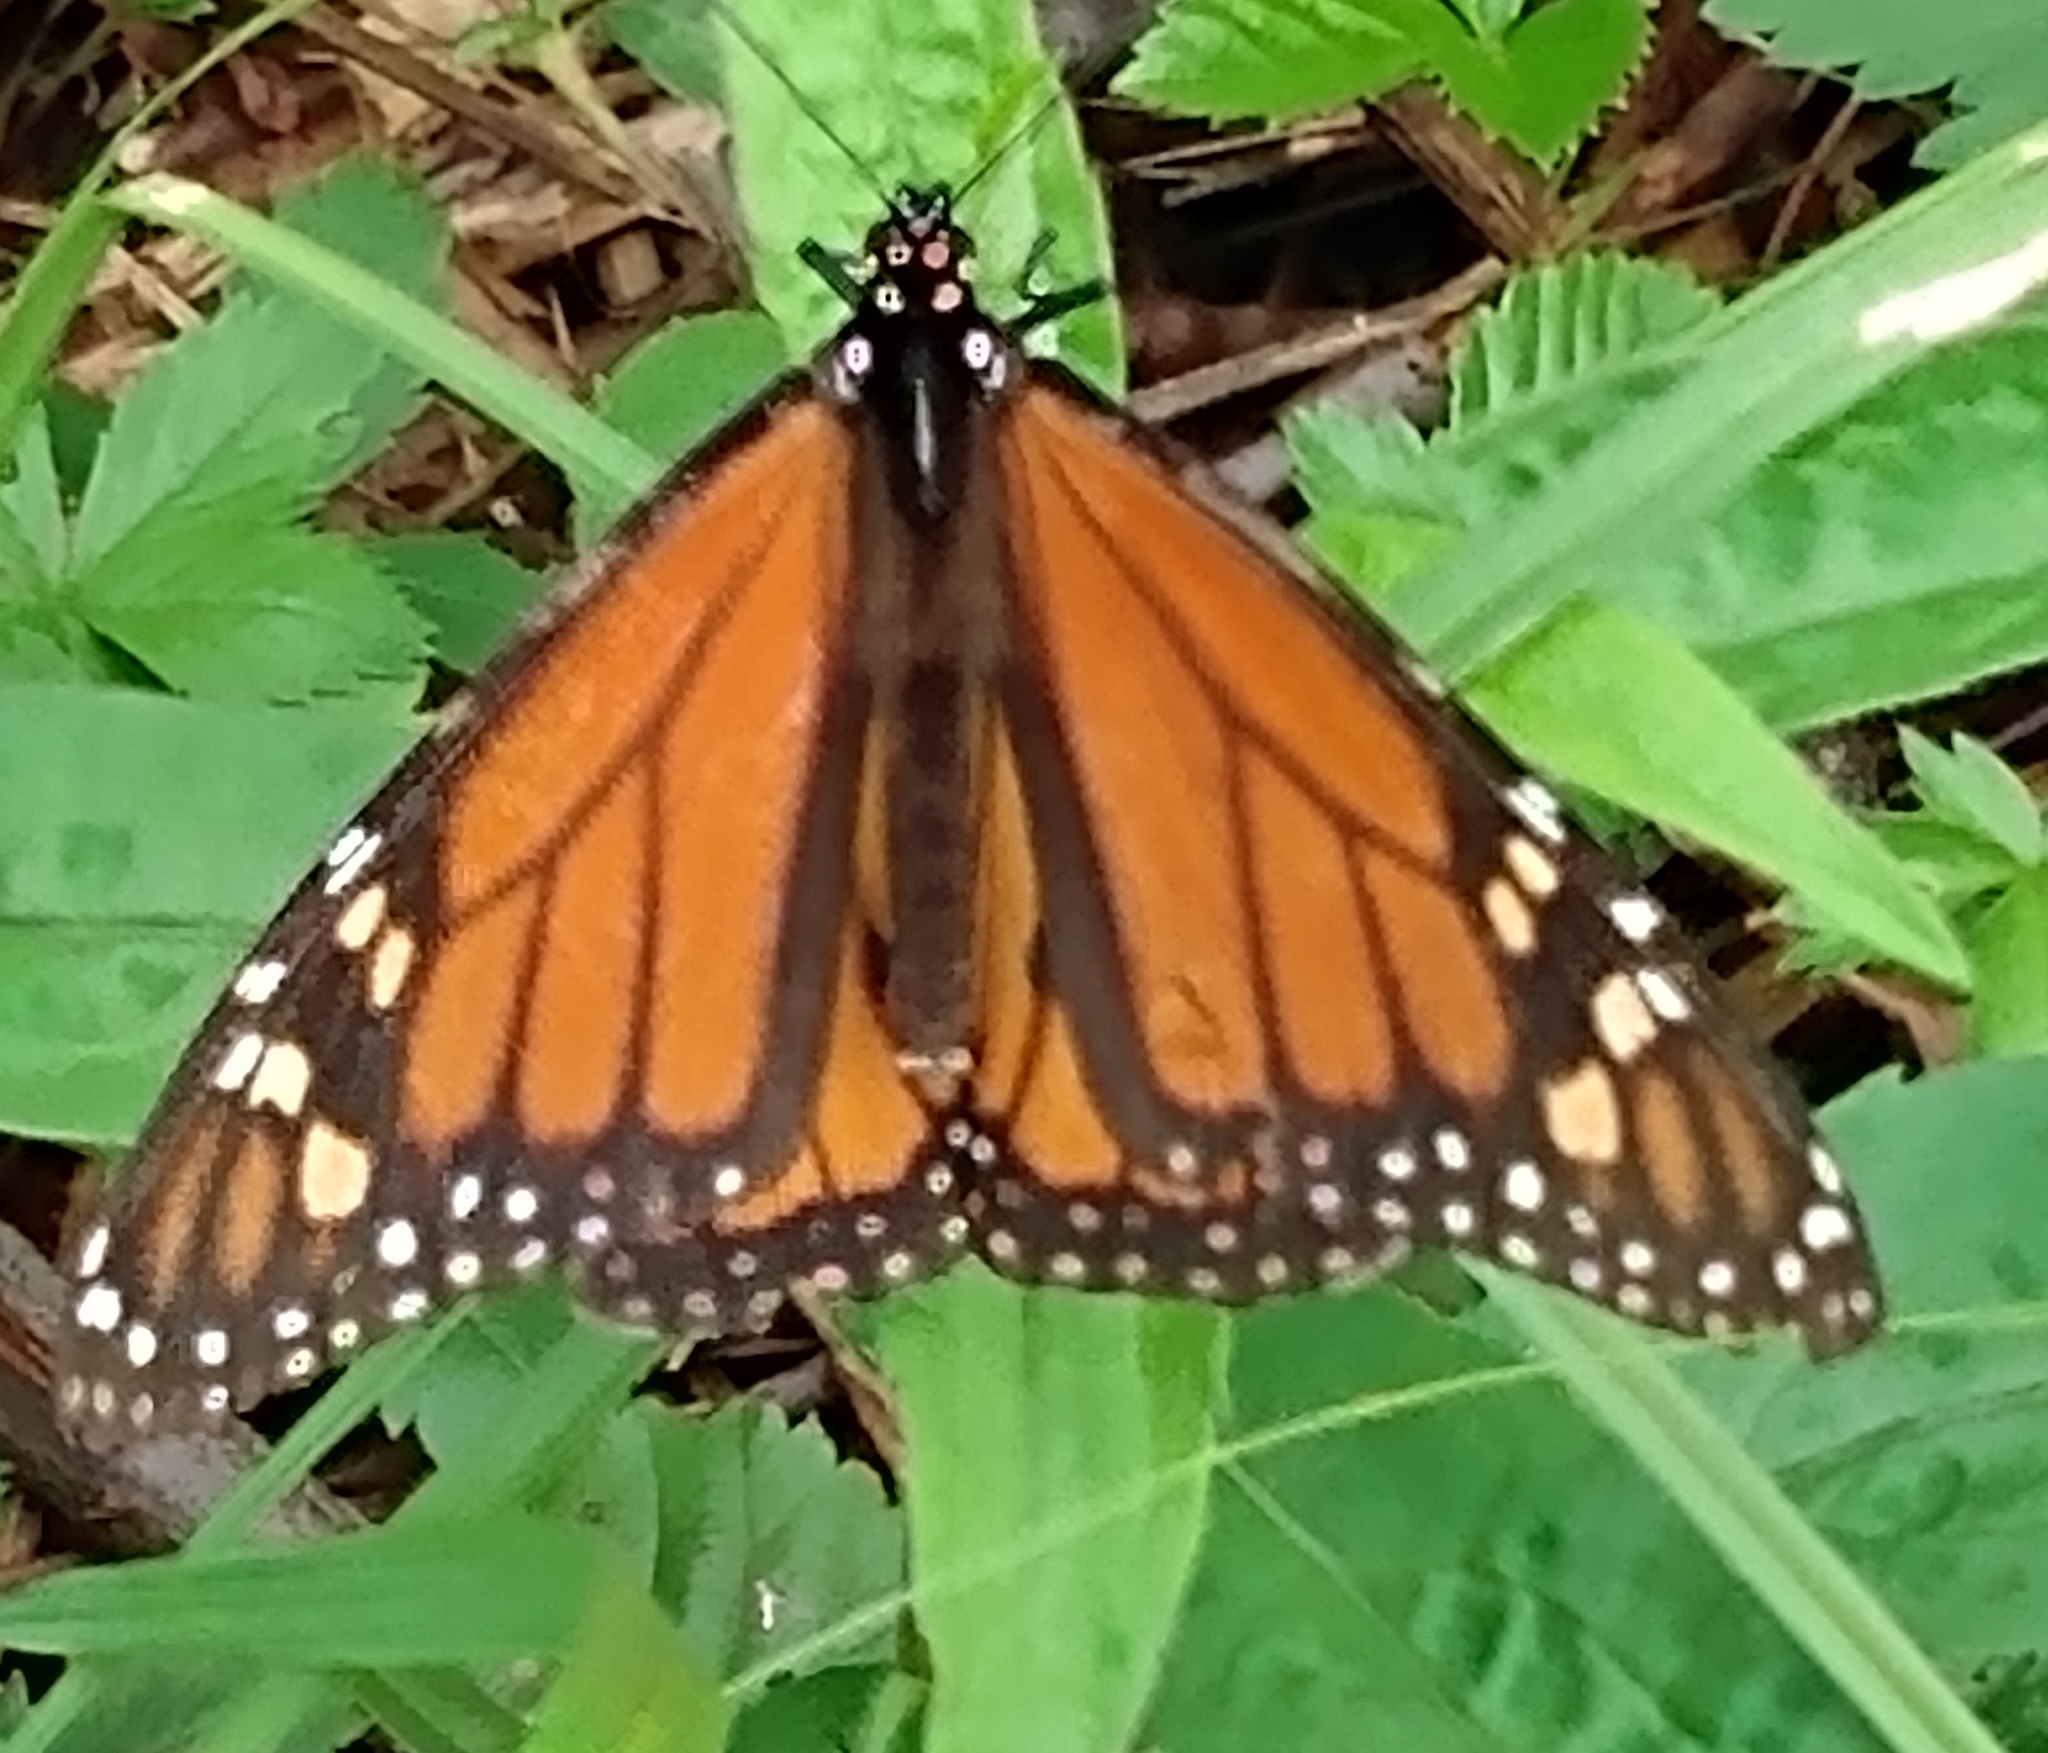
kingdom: Animalia
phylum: Arthropoda
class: Insecta
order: Lepidoptera
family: Nymphalidae
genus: Danaus
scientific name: Danaus plexippus
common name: Monarch
